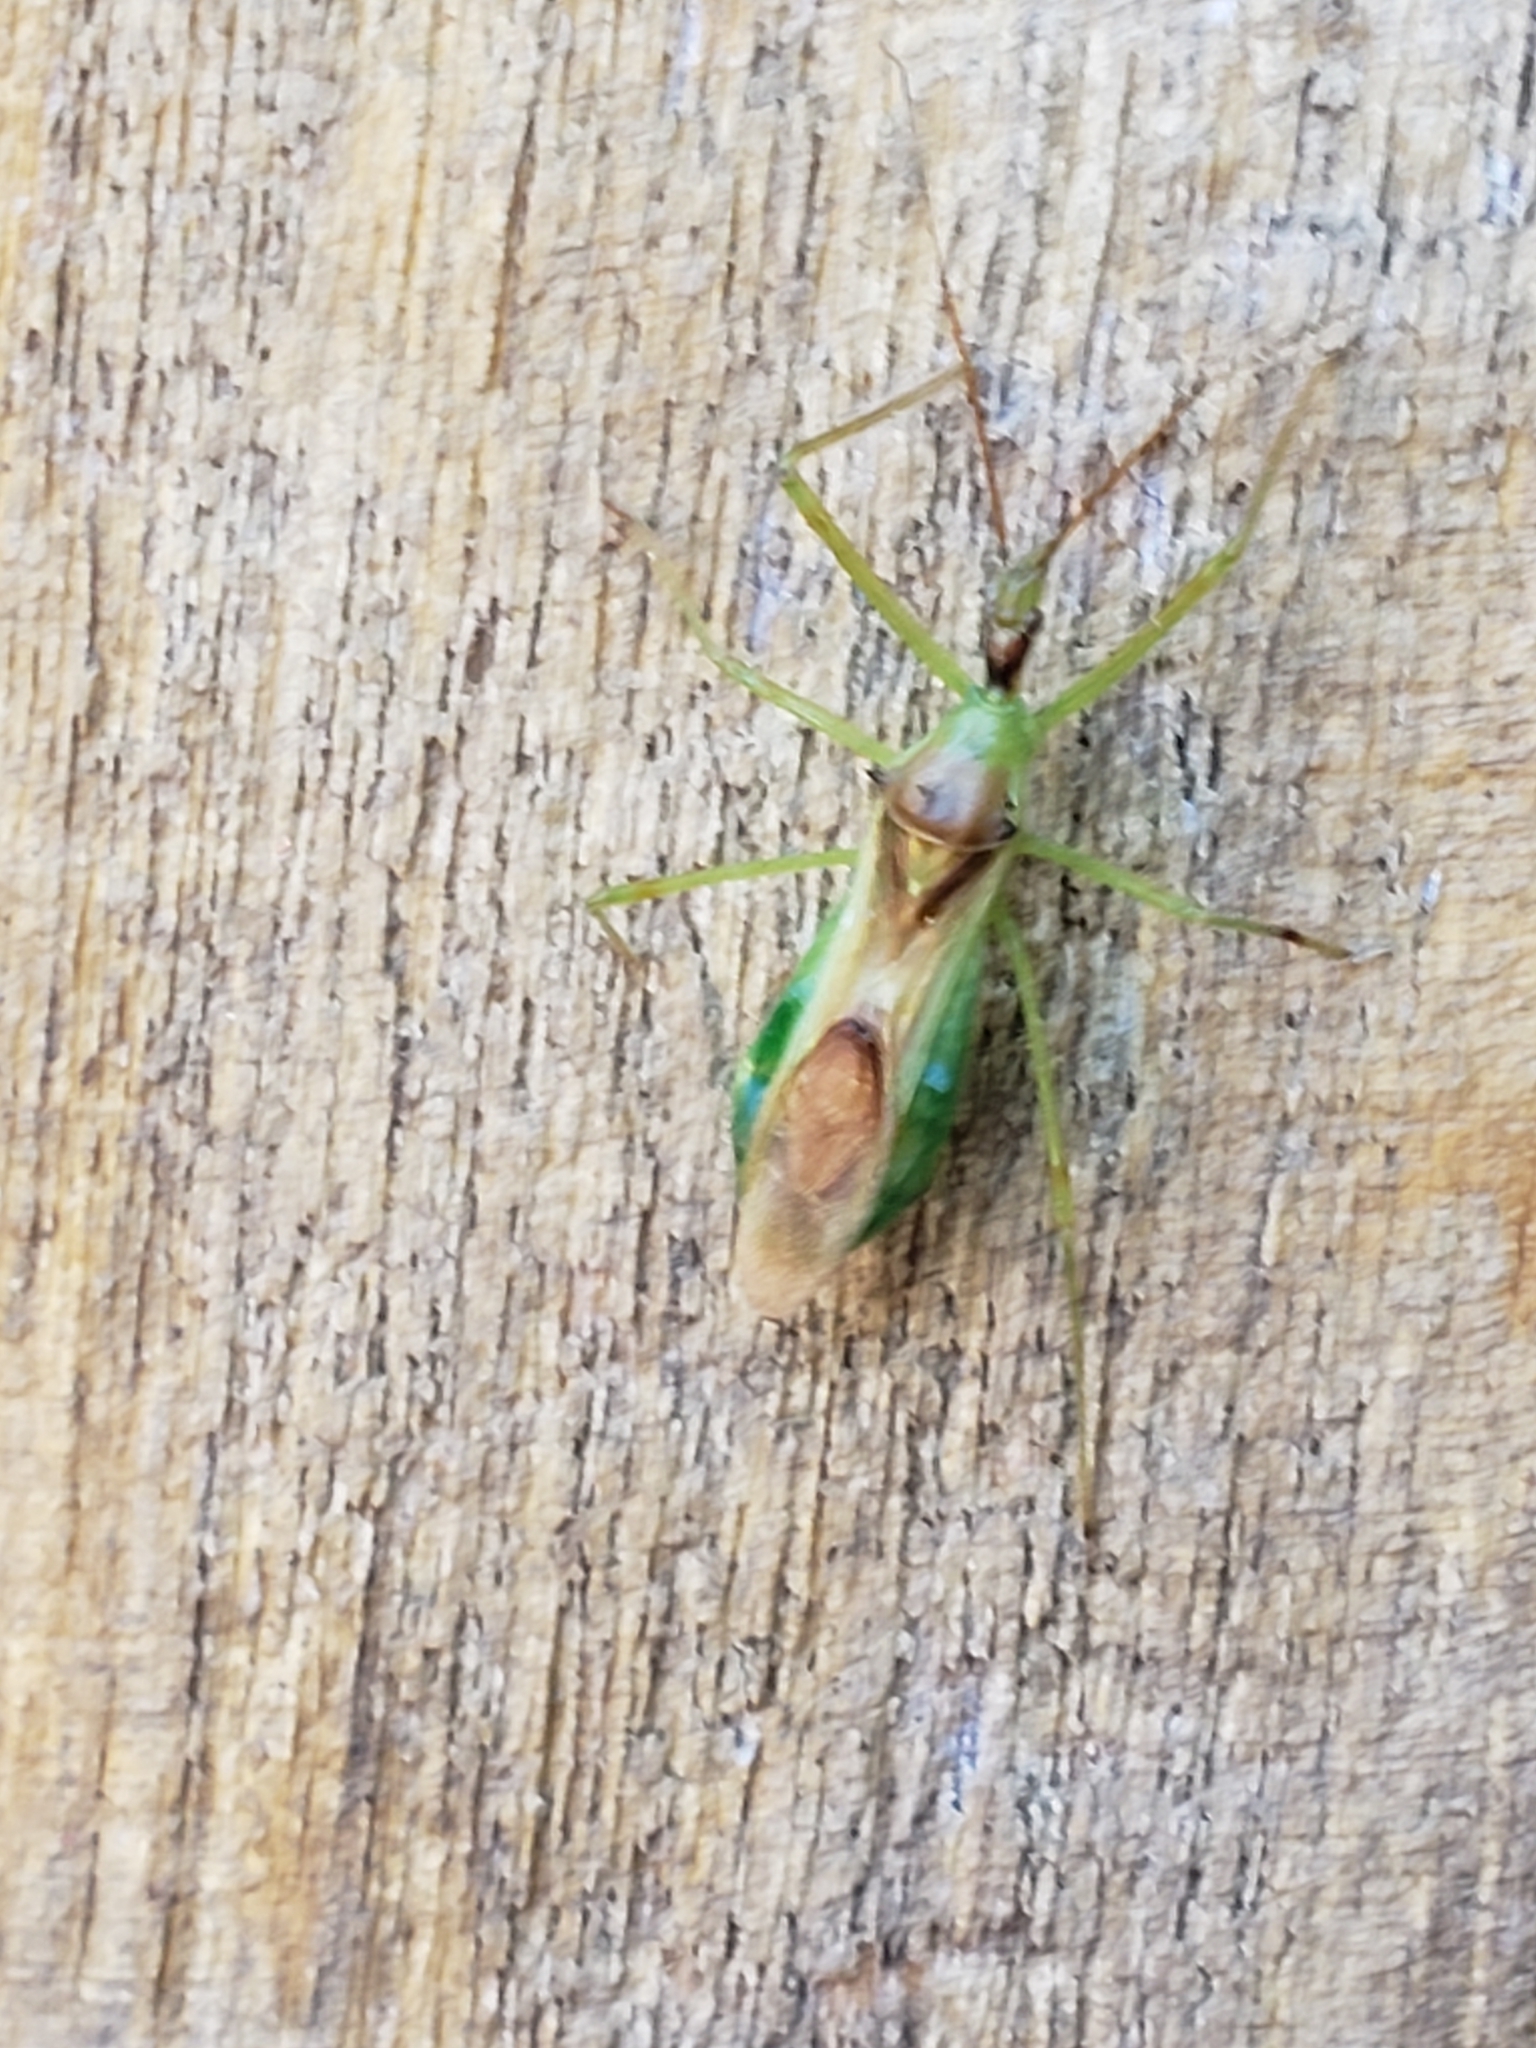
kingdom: Animalia
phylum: Arthropoda
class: Insecta
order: Hemiptera
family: Reduviidae
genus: Zelus
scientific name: Zelus luridus
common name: Pale green assassin bug
